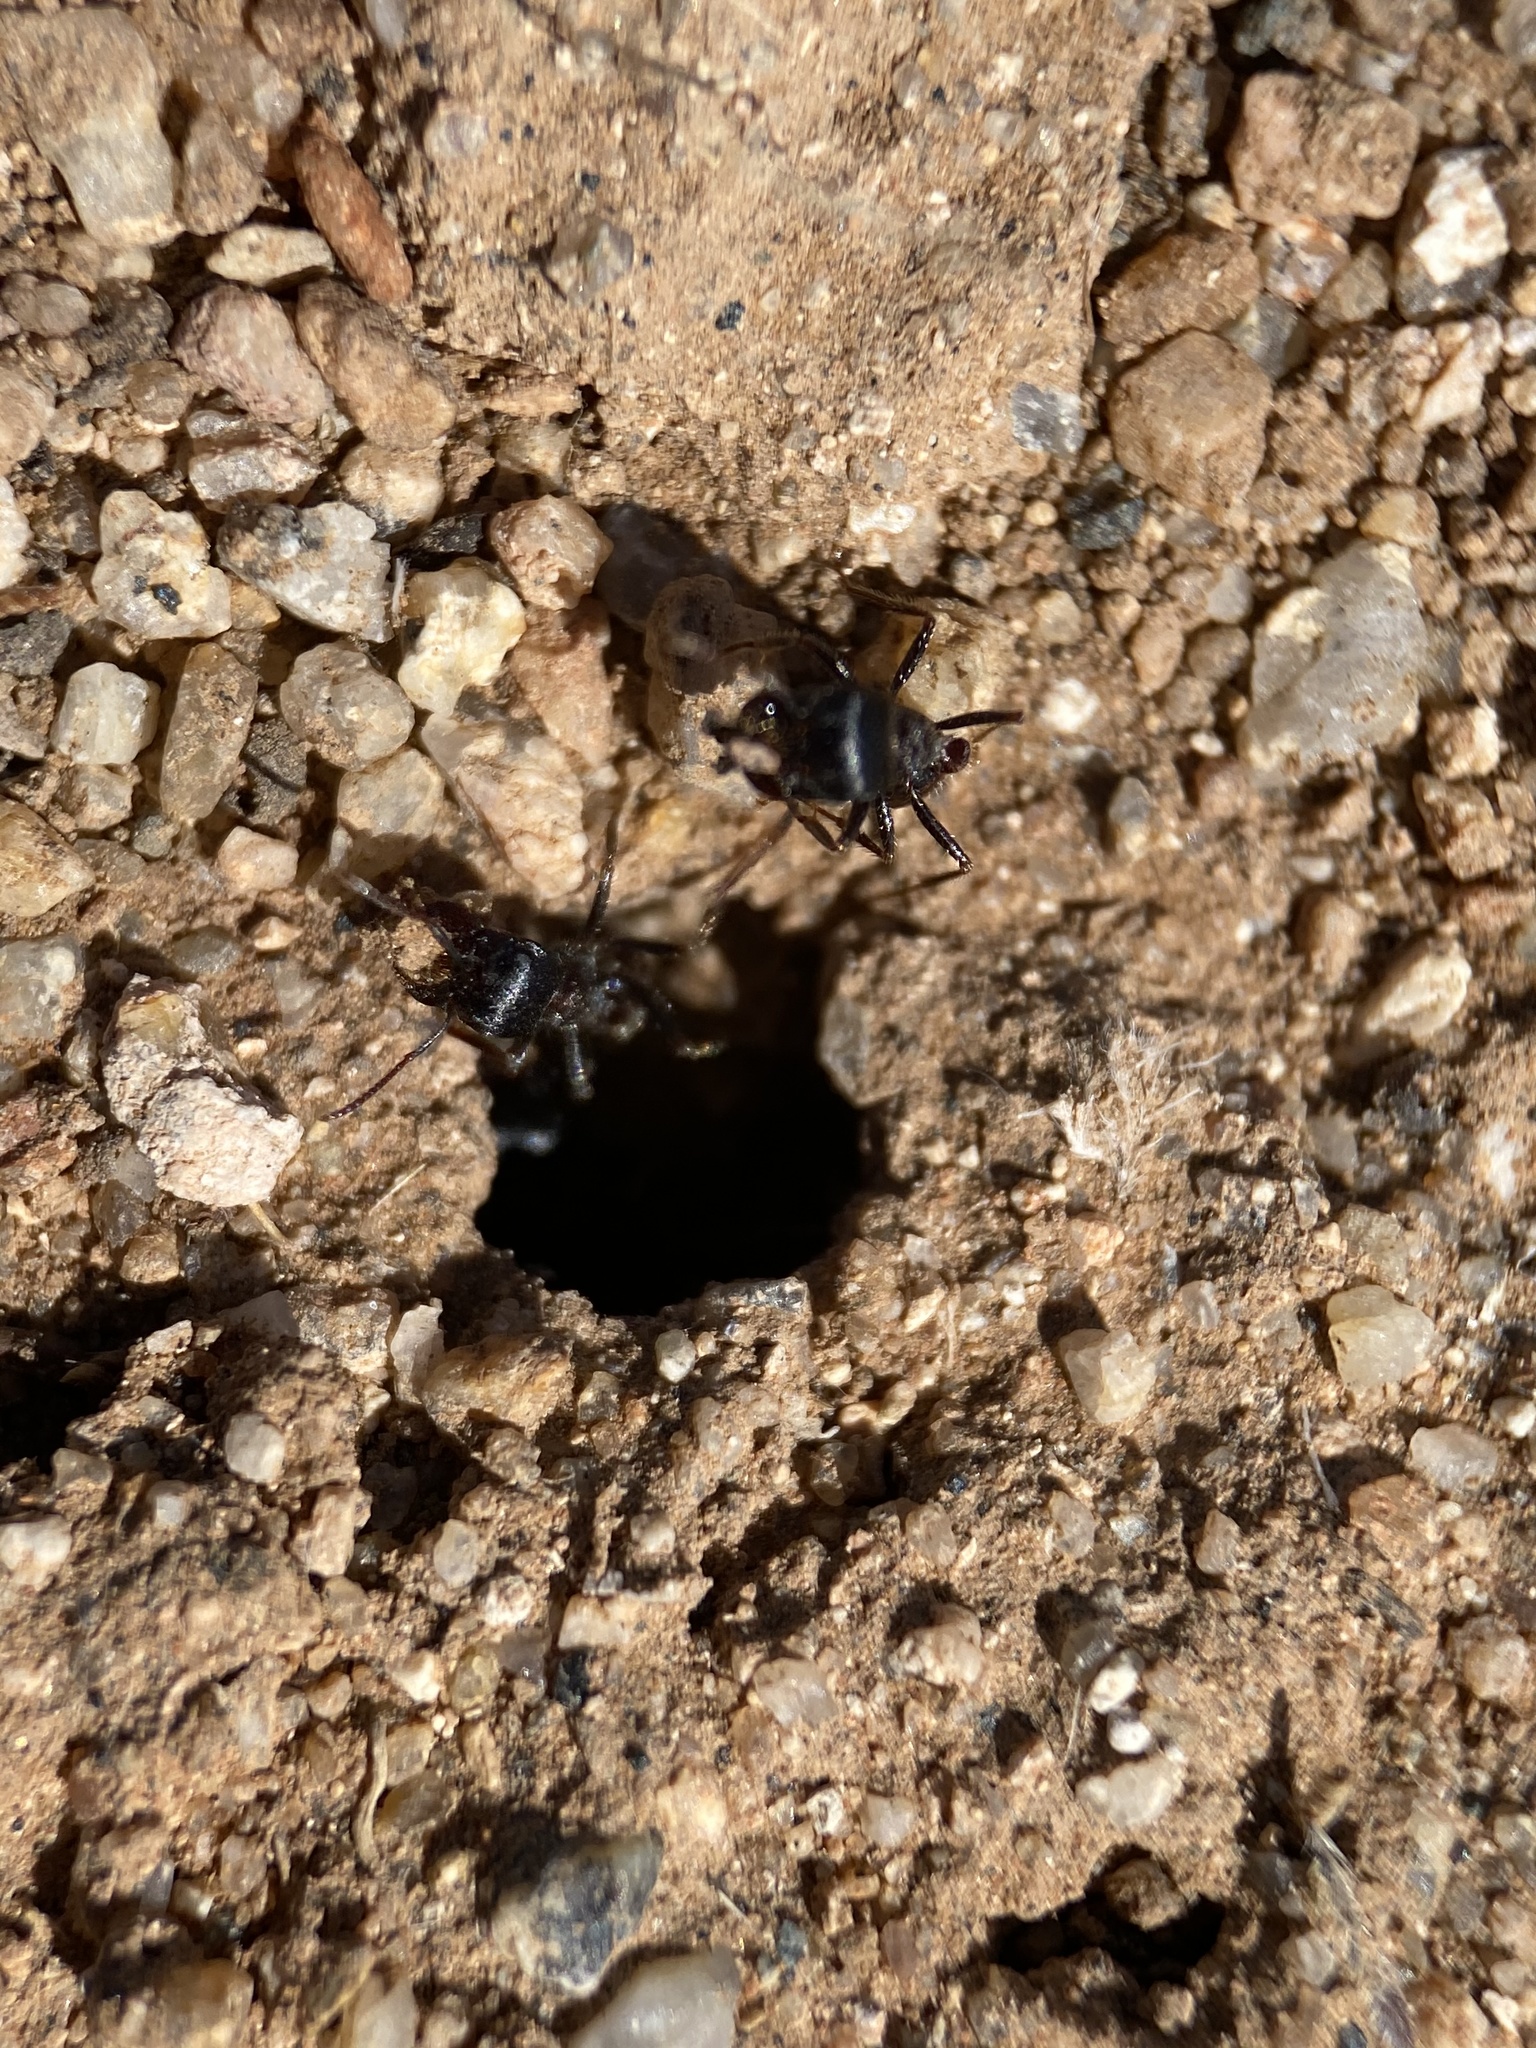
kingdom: Animalia
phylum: Arthropoda
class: Insecta
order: Hymenoptera
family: Formicidae
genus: Pogonomyrmex
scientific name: Pogonomyrmex rugosus
